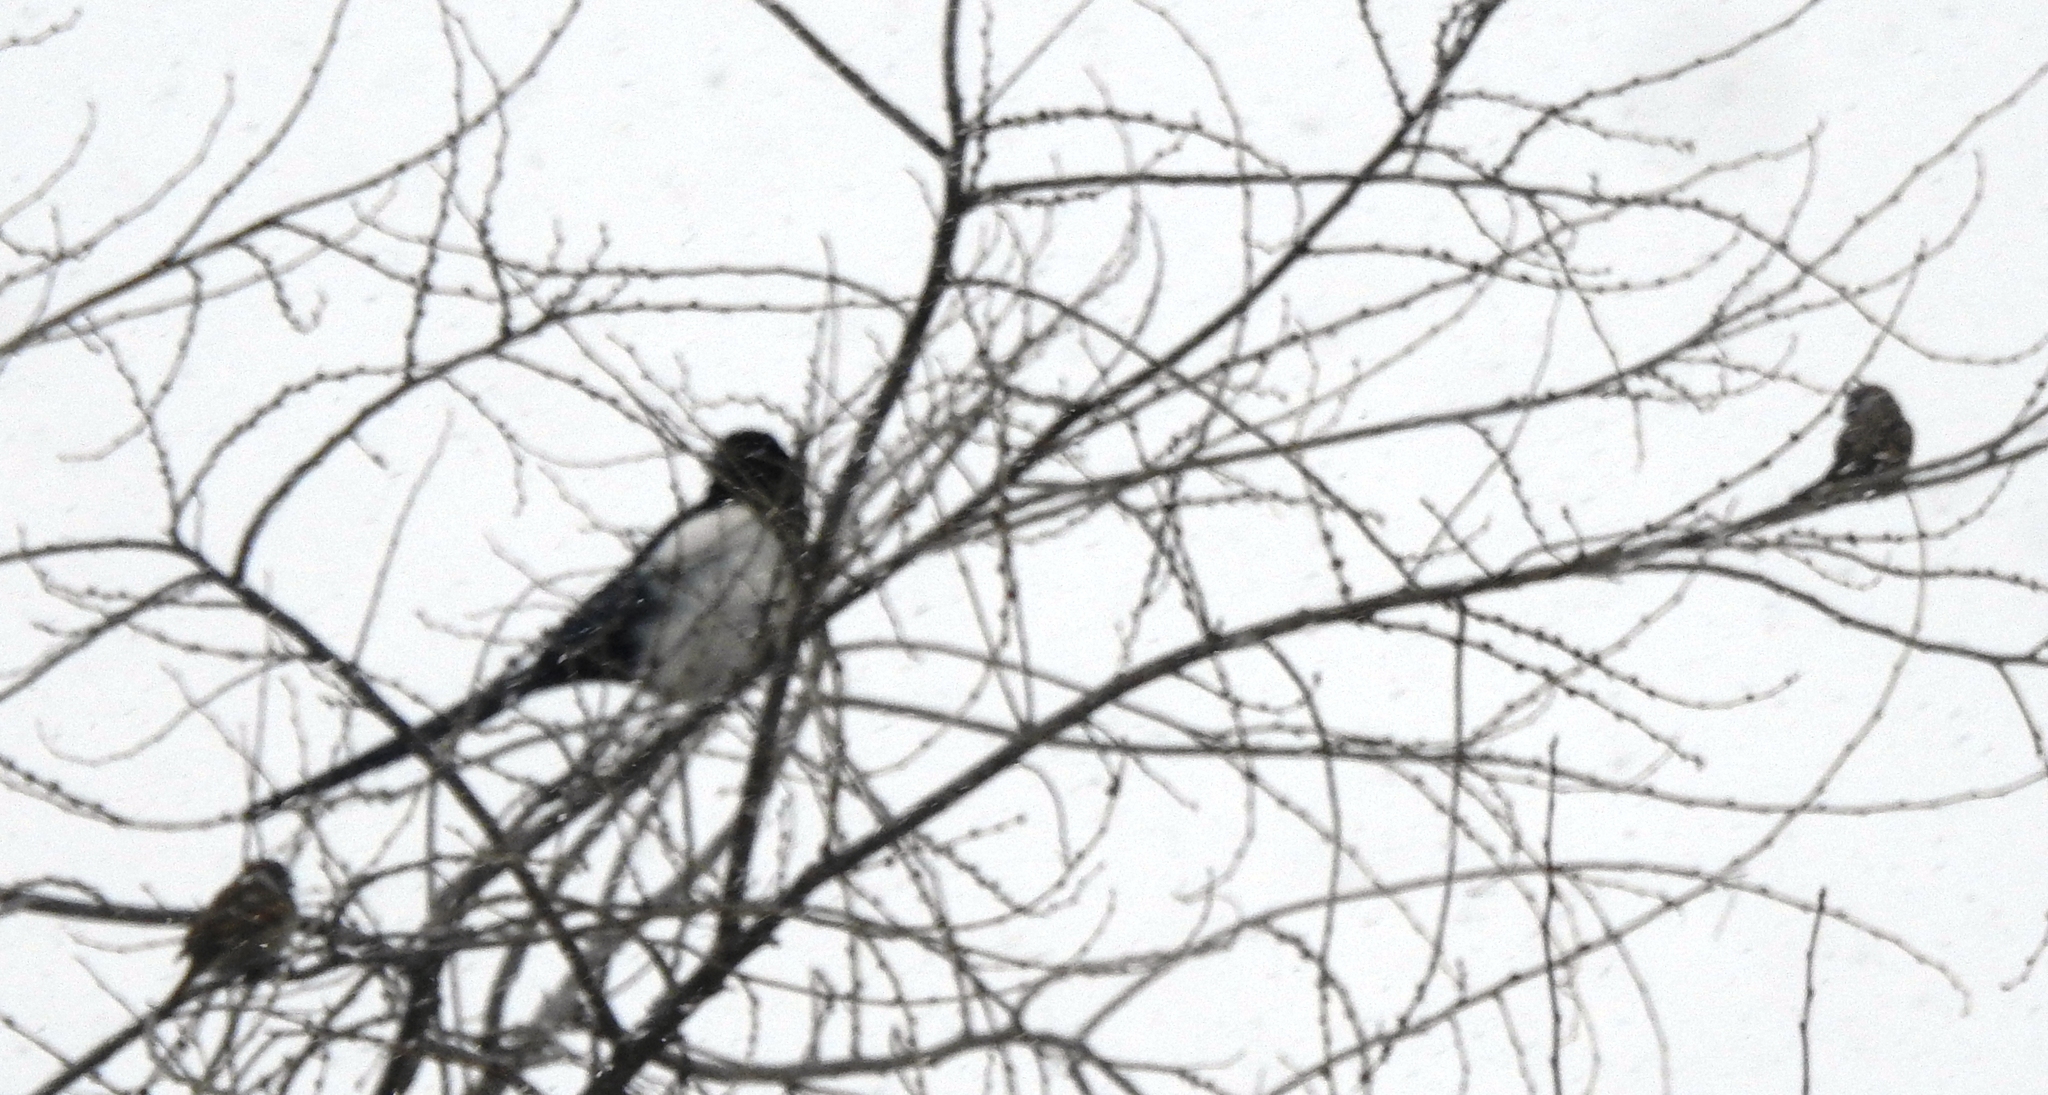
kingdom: Animalia
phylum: Chordata
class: Aves
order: Passeriformes
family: Corvidae
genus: Pica
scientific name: Pica pica
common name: Eurasian magpie
